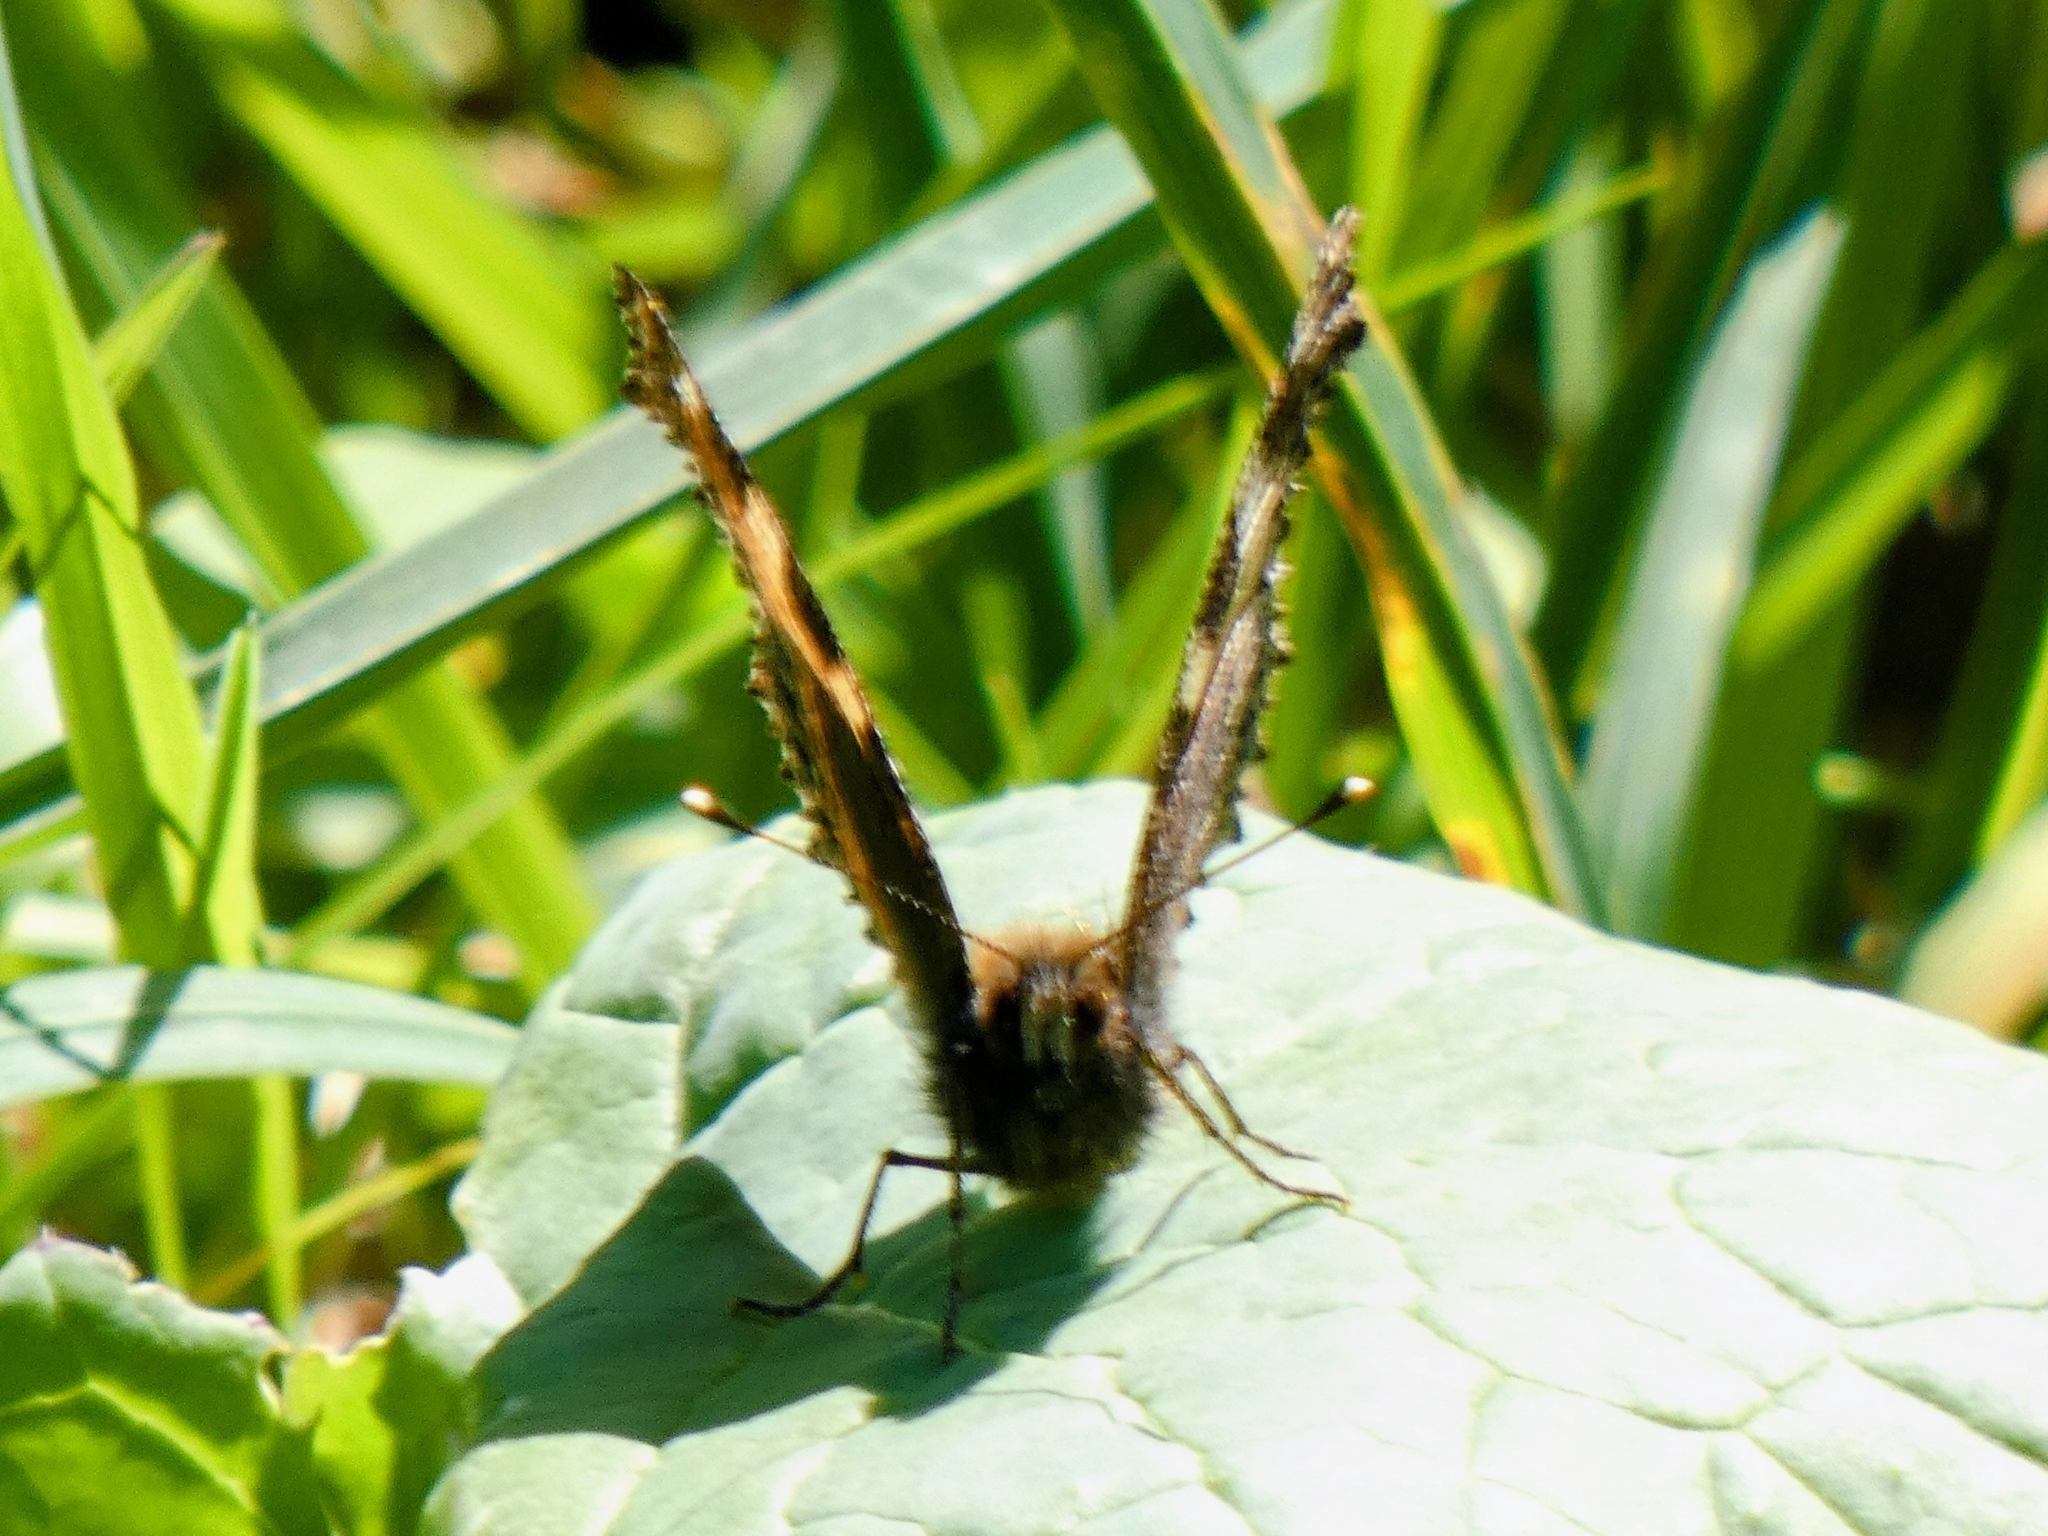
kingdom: Animalia
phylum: Arthropoda
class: Insecta
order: Lepidoptera
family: Nymphalidae
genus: Aglais
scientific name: Aglais urticae
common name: Small tortoiseshell
